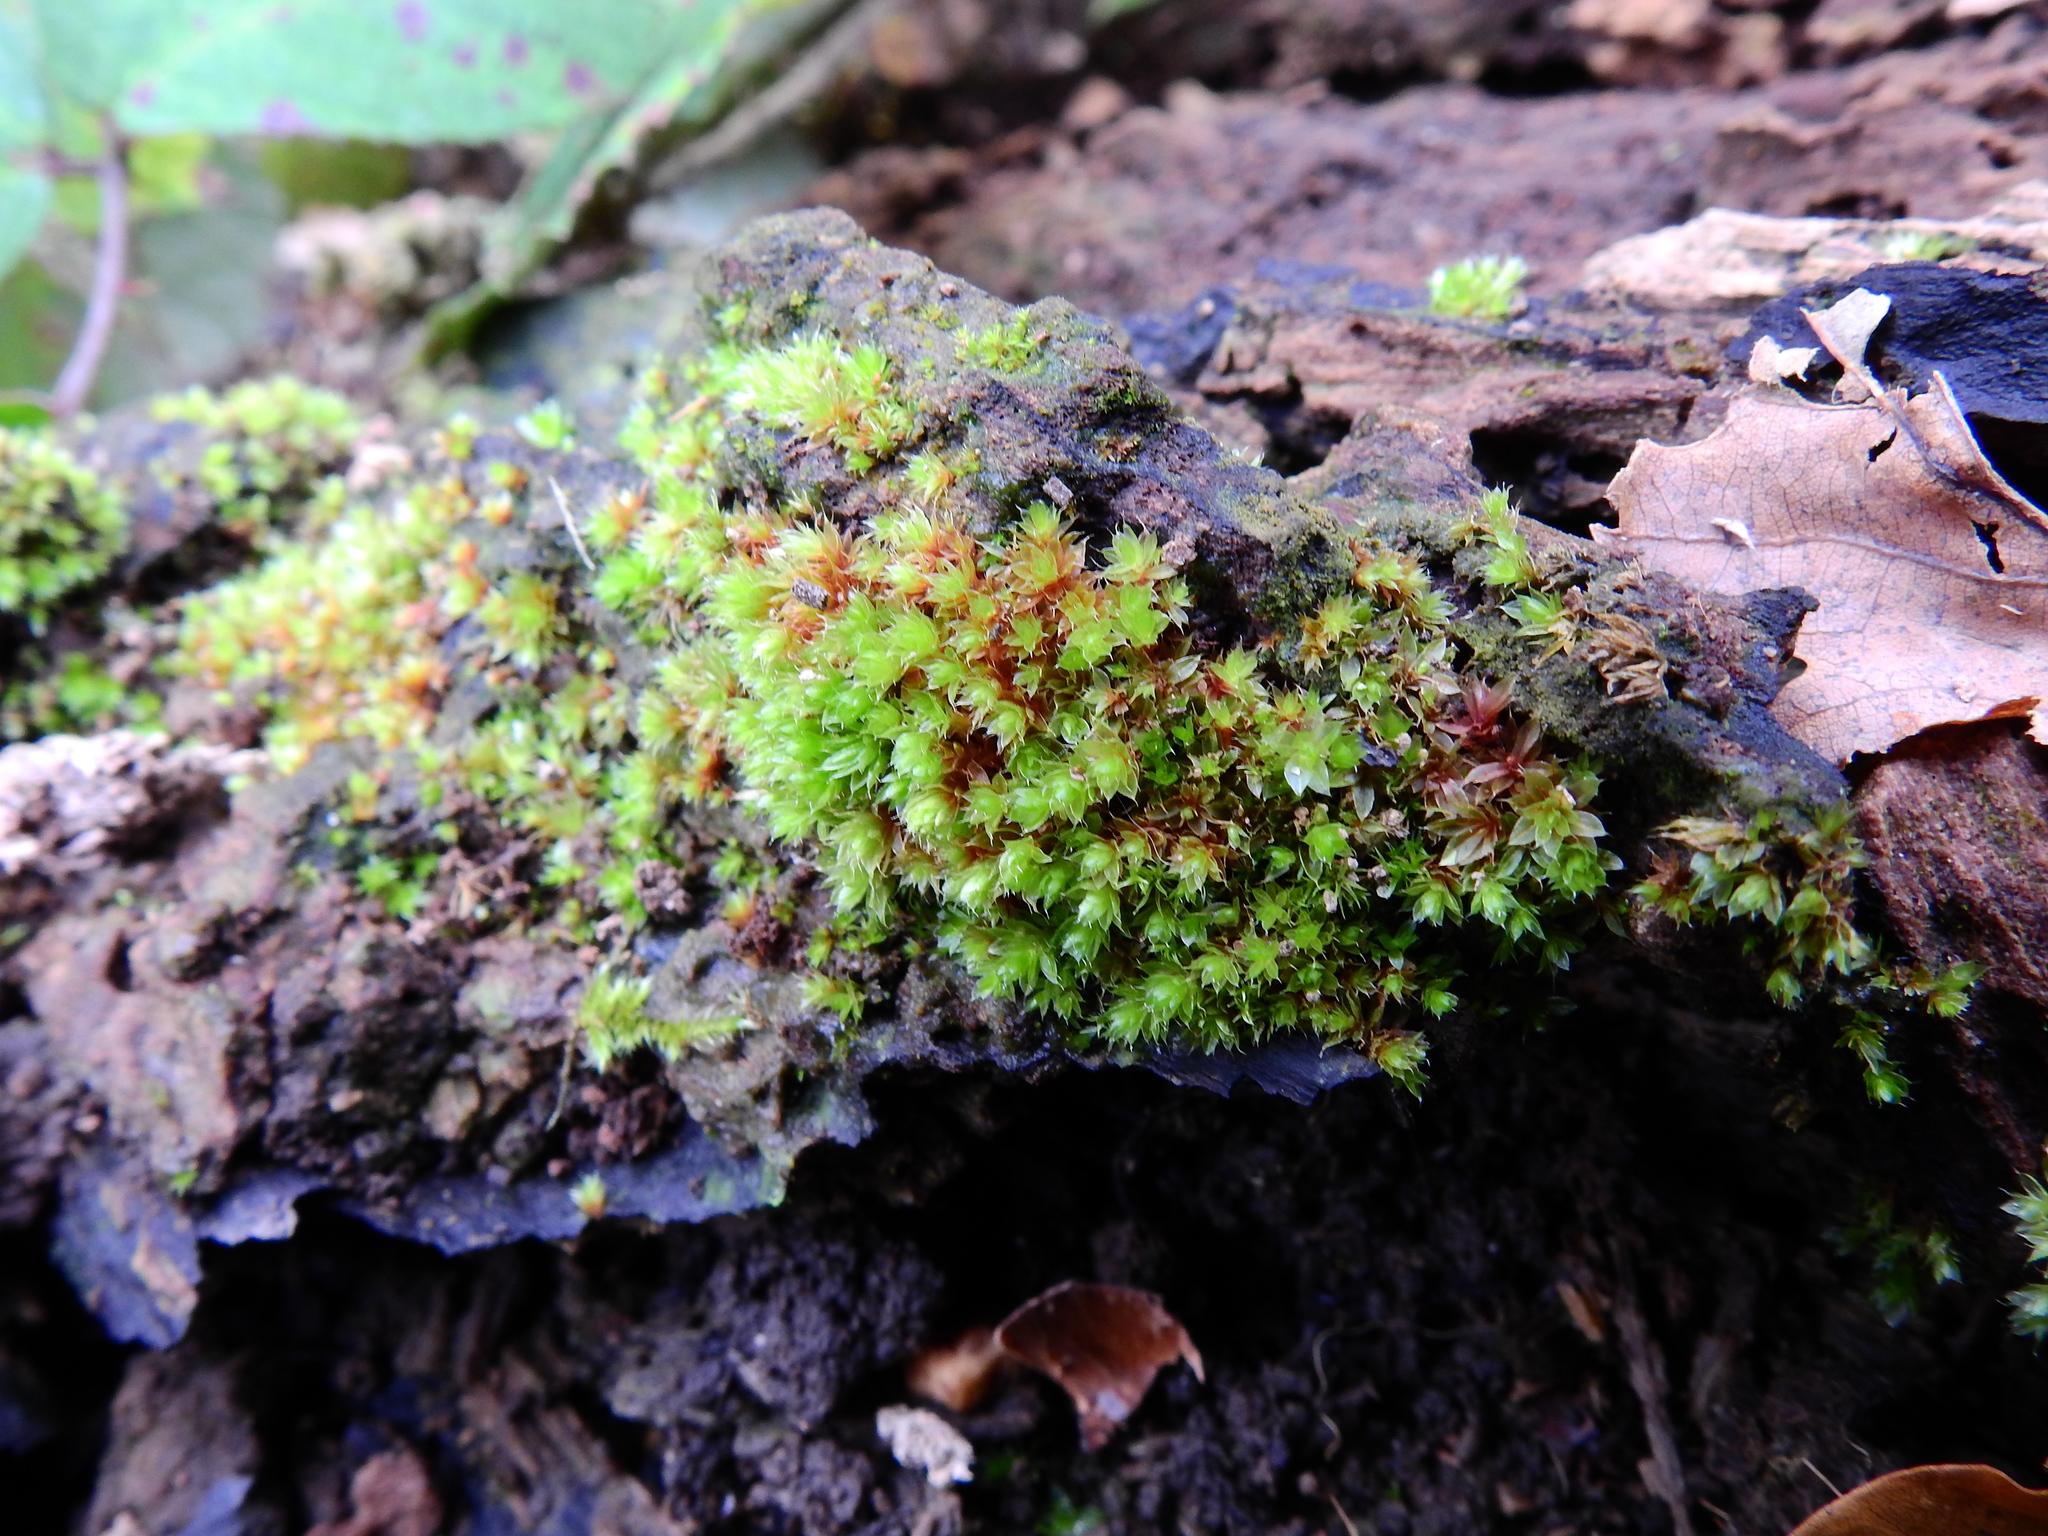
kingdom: Plantae
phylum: Bryophyta
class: Bryopsida
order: Bryales
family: Bryaceae
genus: Rosulabryum
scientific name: Rosulabryum capillare
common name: Capillary thread-moss
